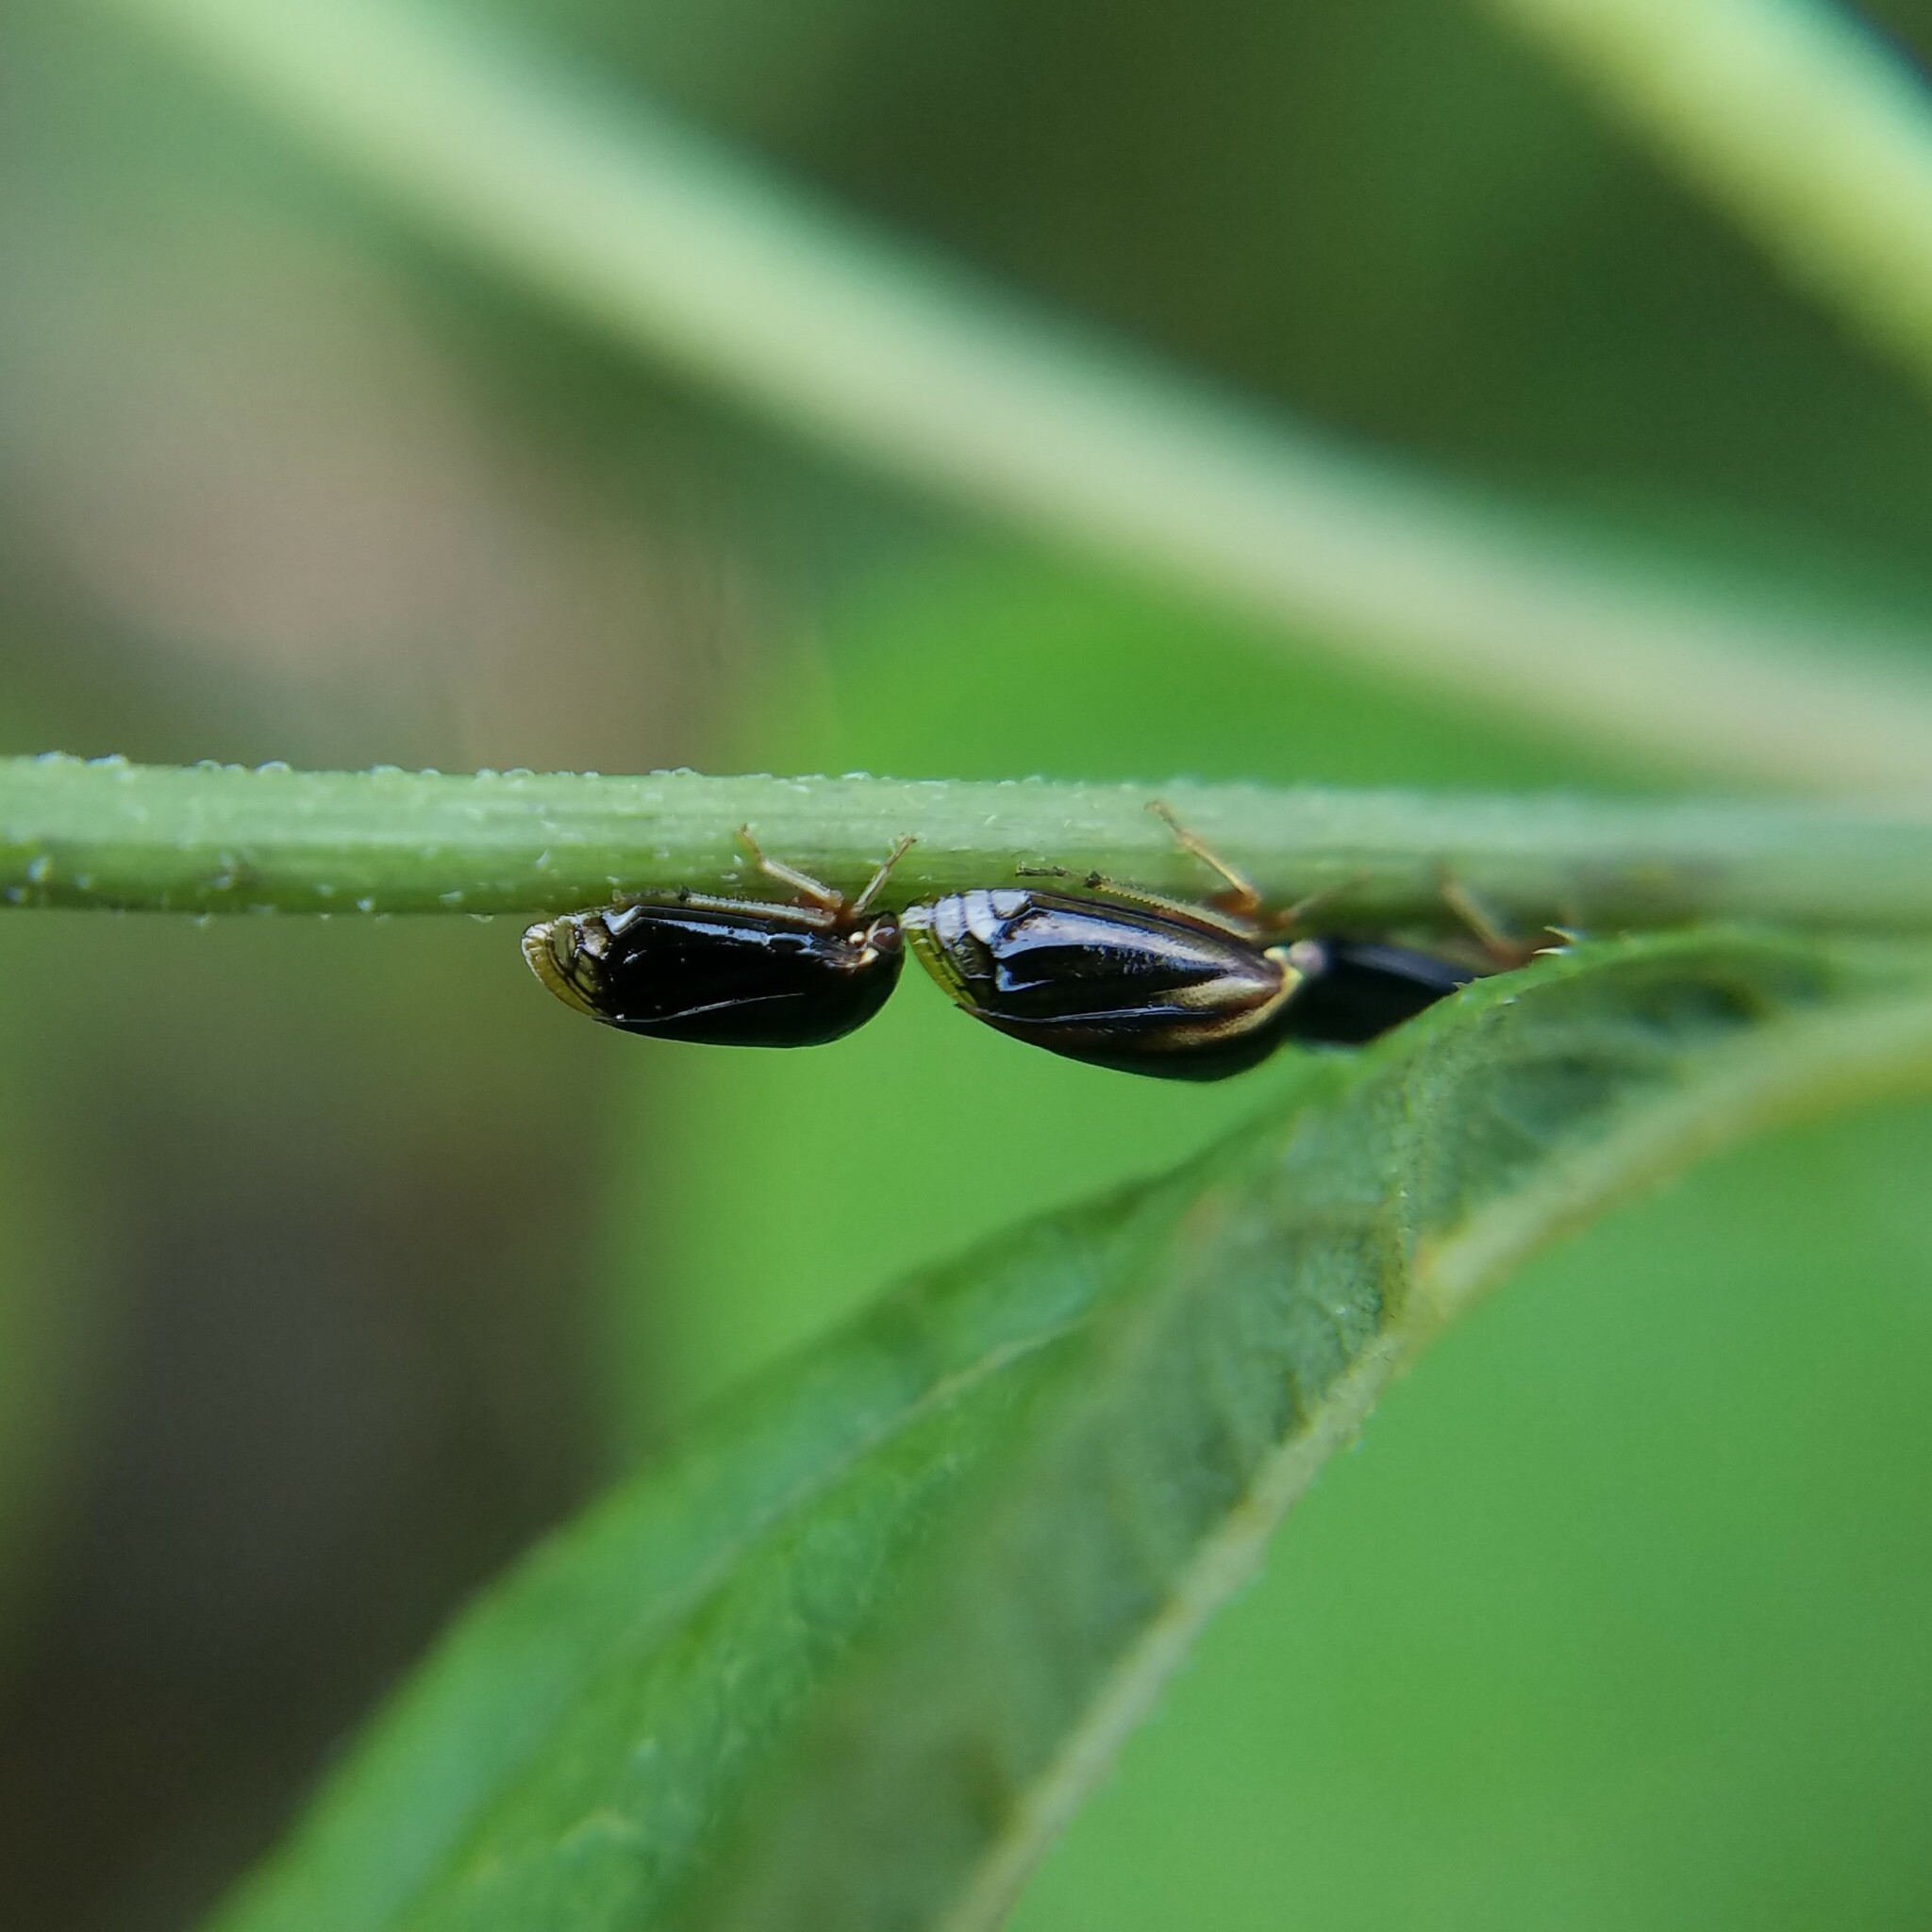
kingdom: Animalia
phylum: Arthropoda
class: Insecta
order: Hemiptera
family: Membracidae
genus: Acutalis
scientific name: Acutalis tartarea
